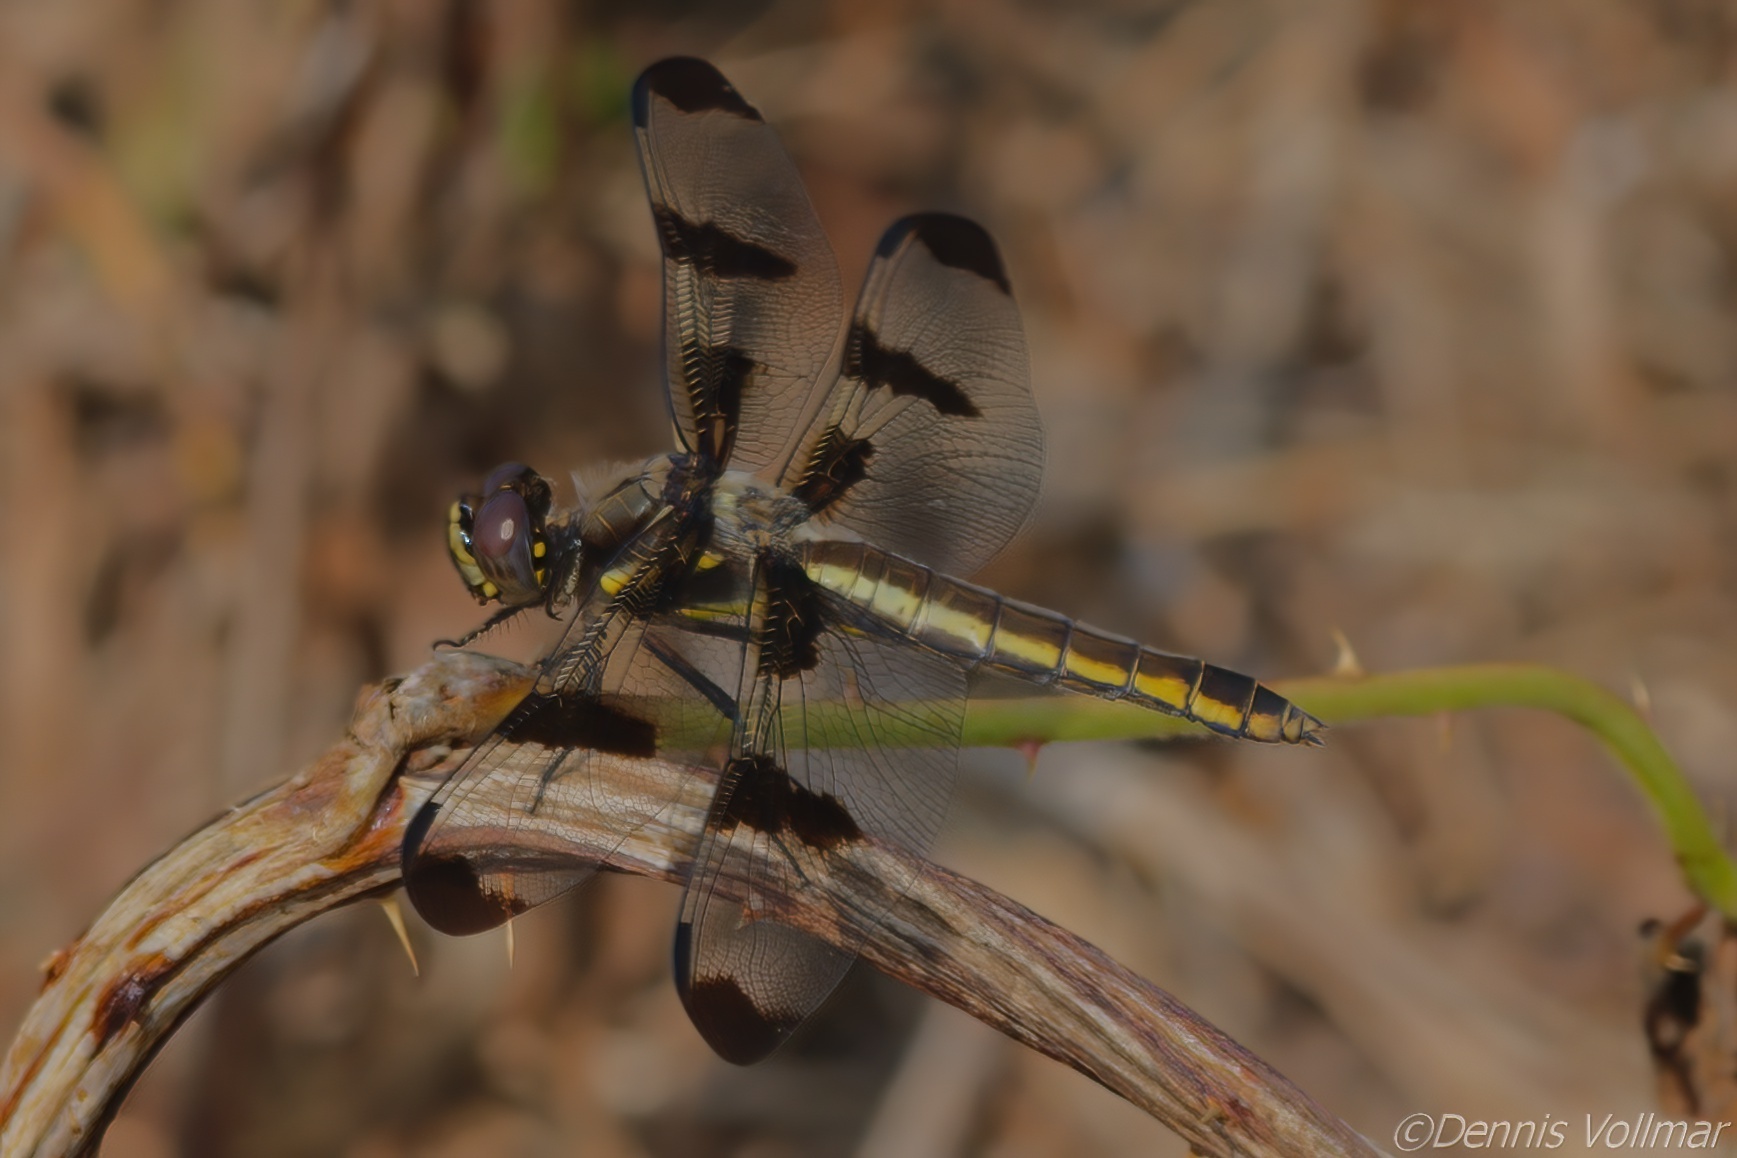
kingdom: Animalia
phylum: Arthropoda
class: Insecta
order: Odonata
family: Libellulidae
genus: Libellula
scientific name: Libellula pulchella
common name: Twelve-spotted skimmer
